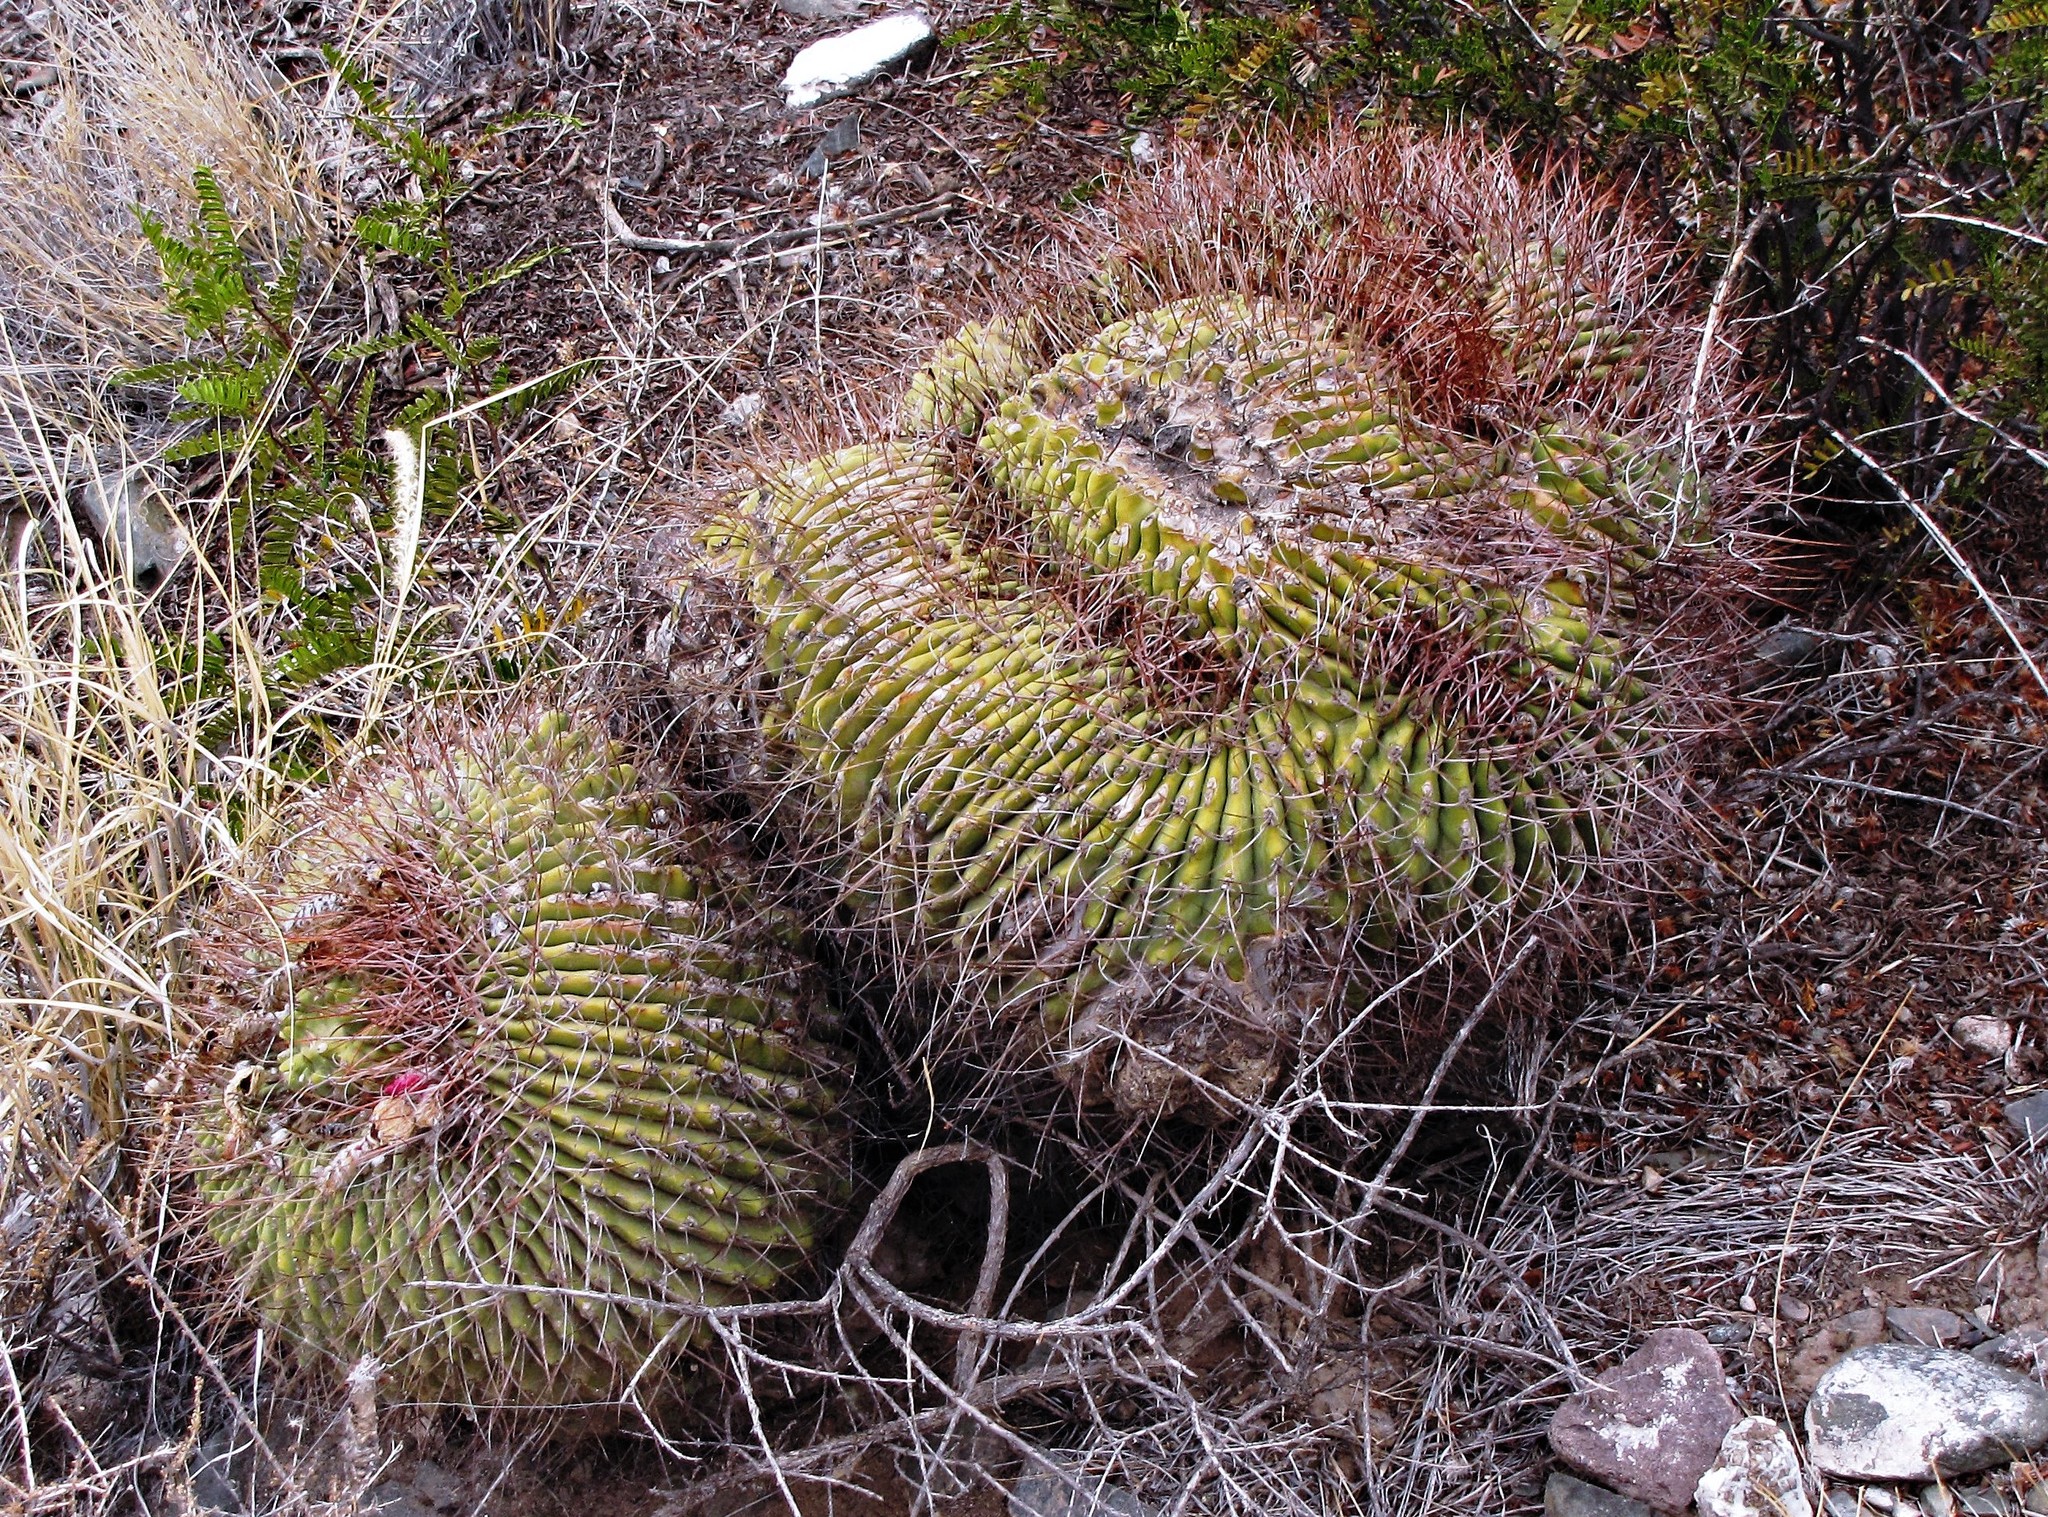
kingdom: Plantae
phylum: Tracheophyta
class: Magnoliopsida
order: Caryophyllales
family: Cactaceae
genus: Denmoza
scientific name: Denmoza rhodacantha
